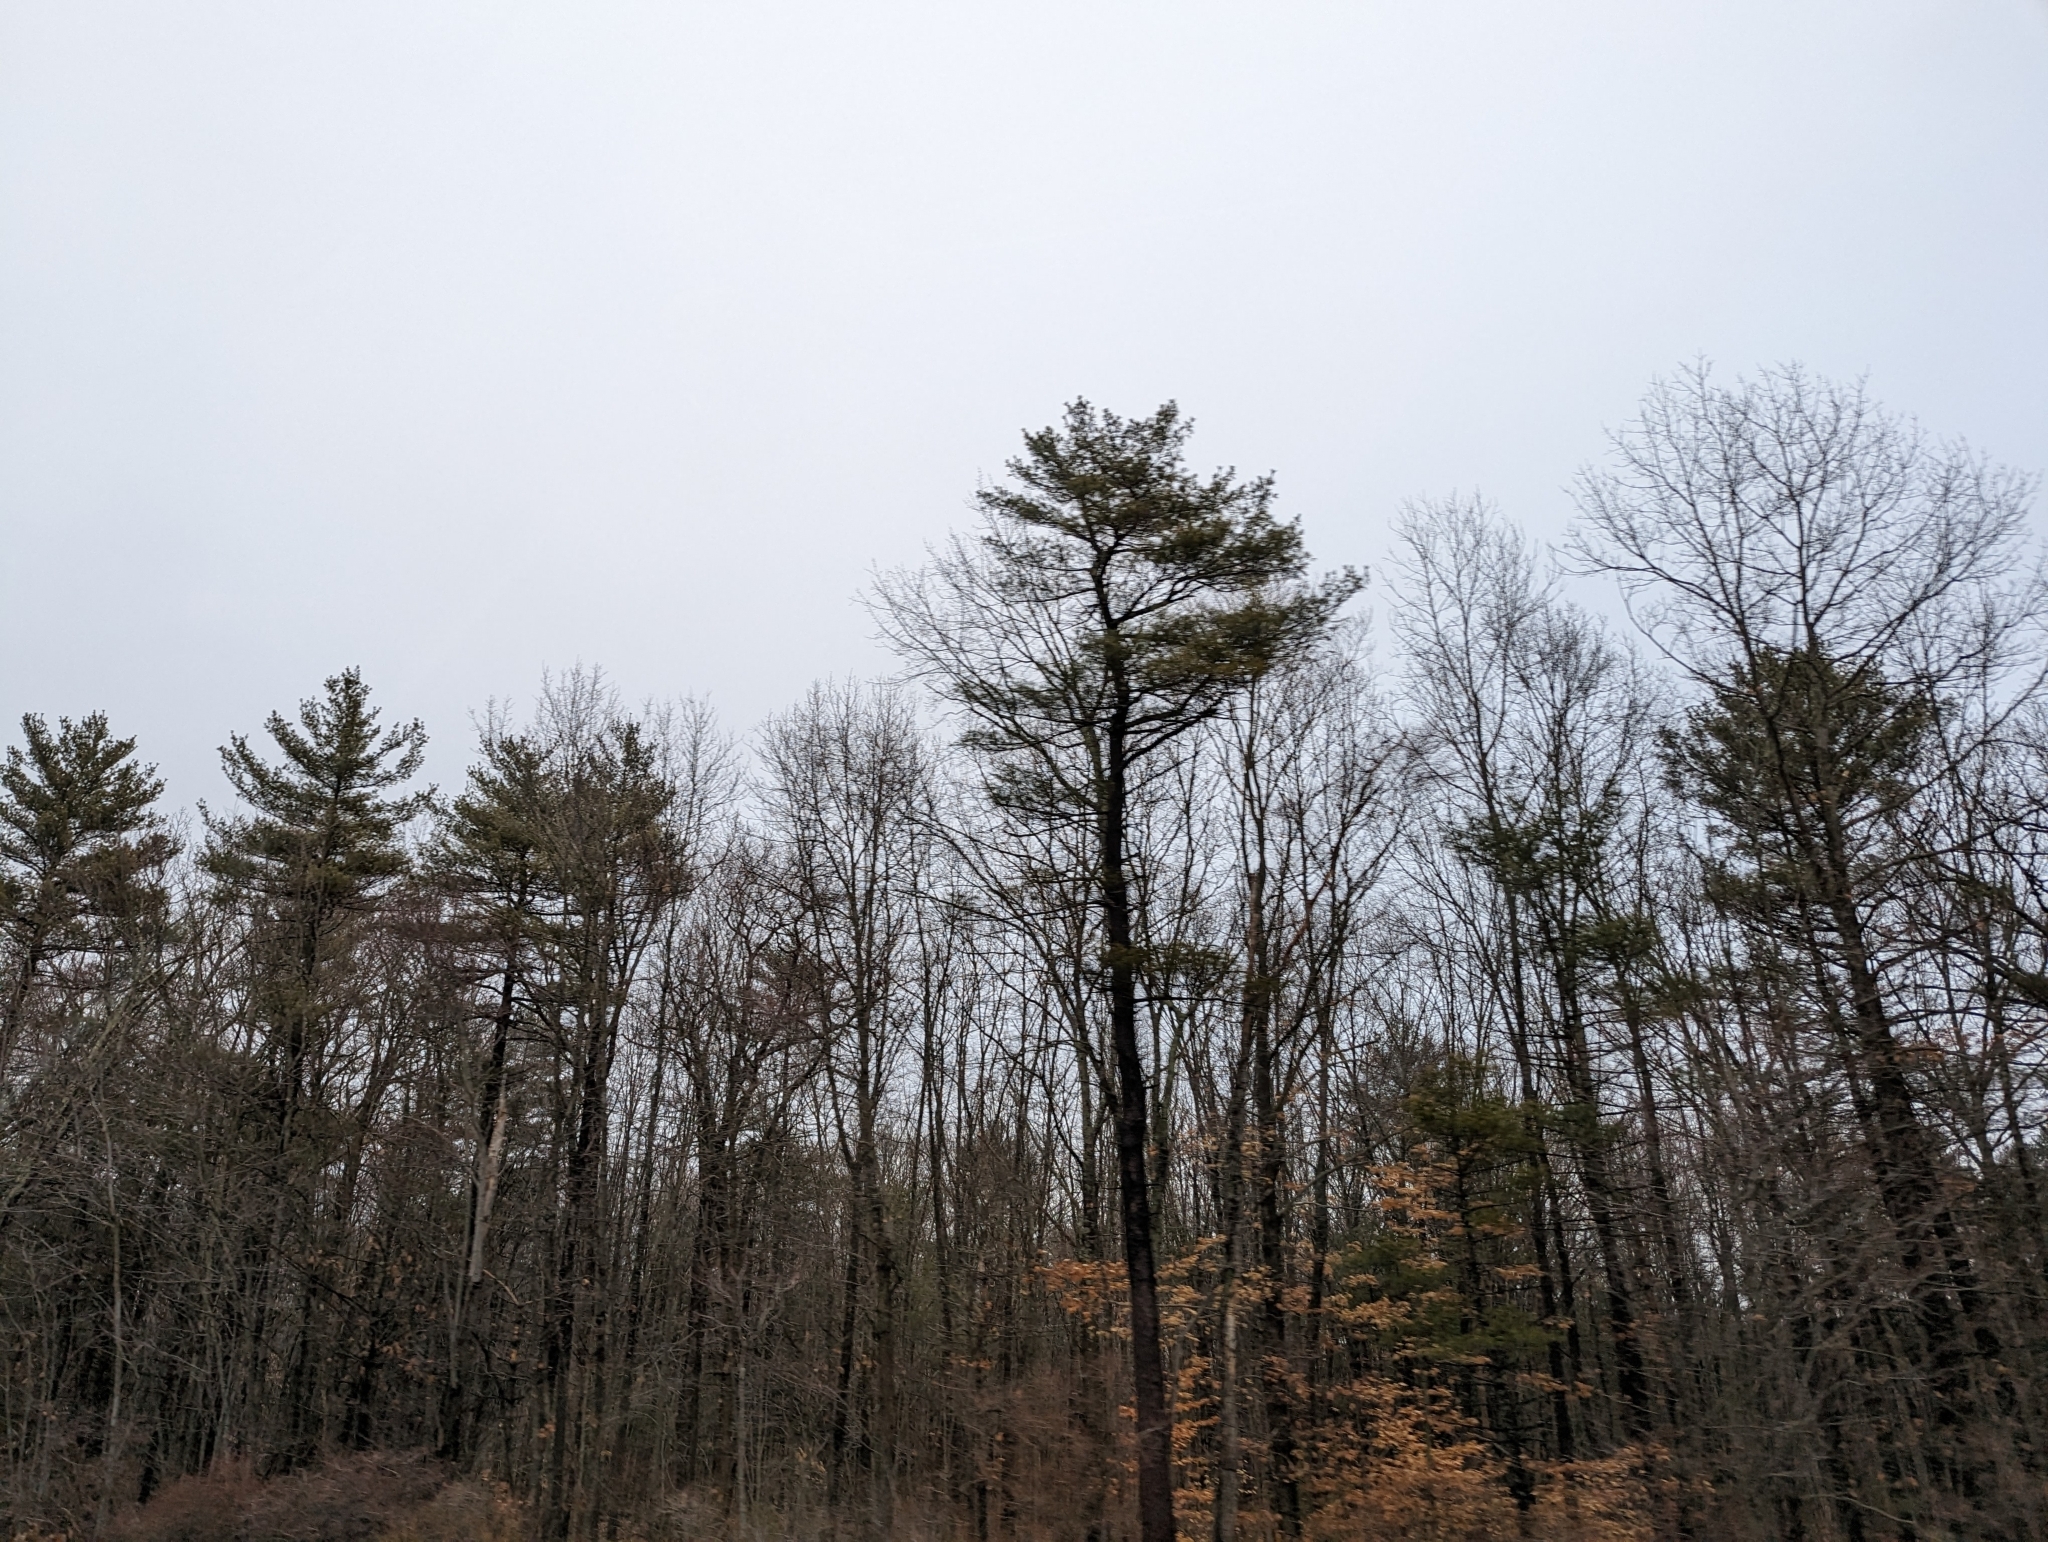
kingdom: Plantae
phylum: Tracheophyta
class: Pinopsida
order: Pinales
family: Pinaceae
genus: Pinus
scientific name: Pinus strobus
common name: Weymouth pine
